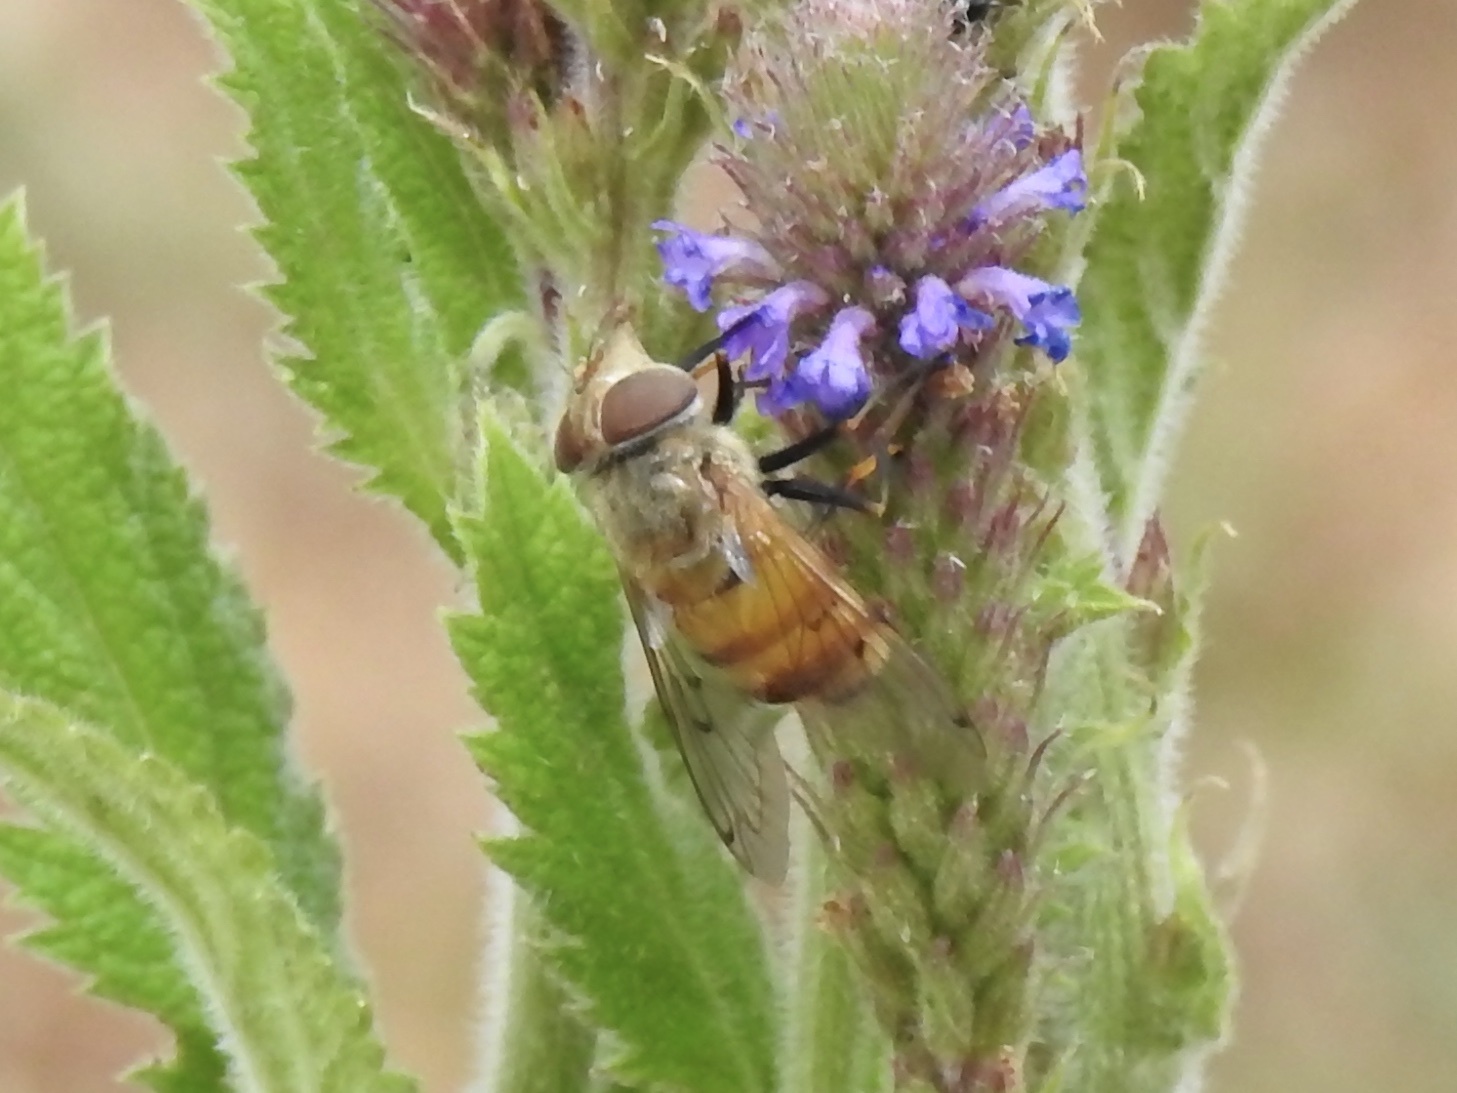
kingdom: Animalia
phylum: Arthropoda
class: Insecta
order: Diptera
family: Syrphidae
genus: Copestylum
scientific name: Copestylum haagii
